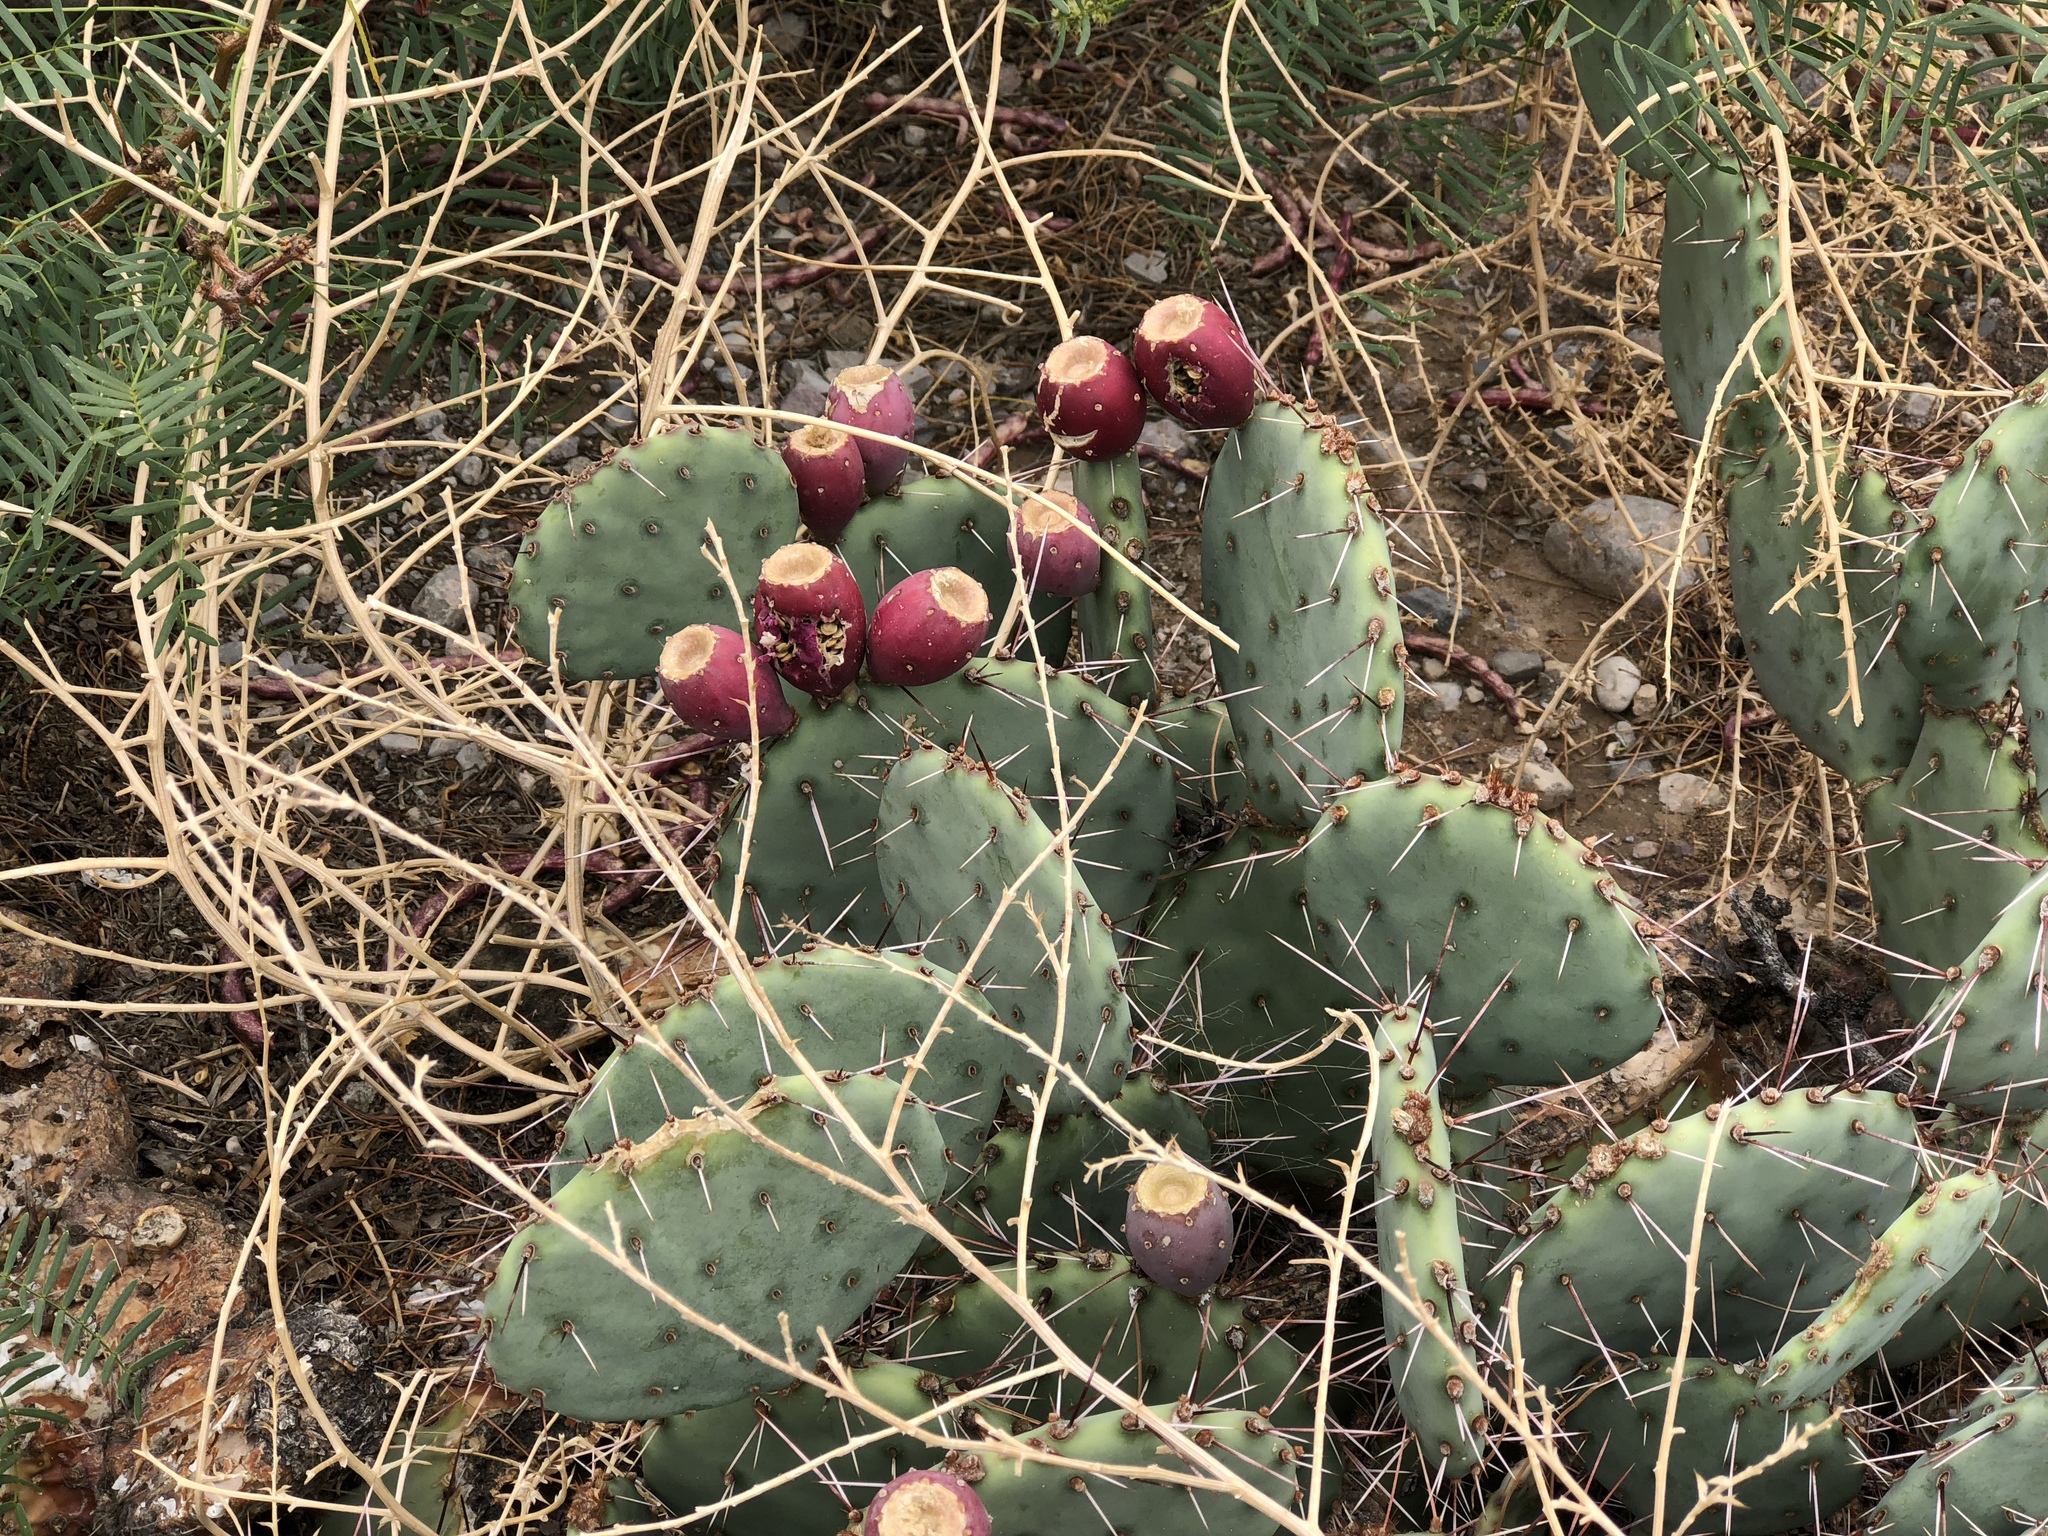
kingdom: Plantae
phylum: Tracheophyta
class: Magnoliopsida
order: Caryophyllales
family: Cactaceae
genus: Opuntia
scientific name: Opuntia phaeacantha
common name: New mexico prickly-pear
